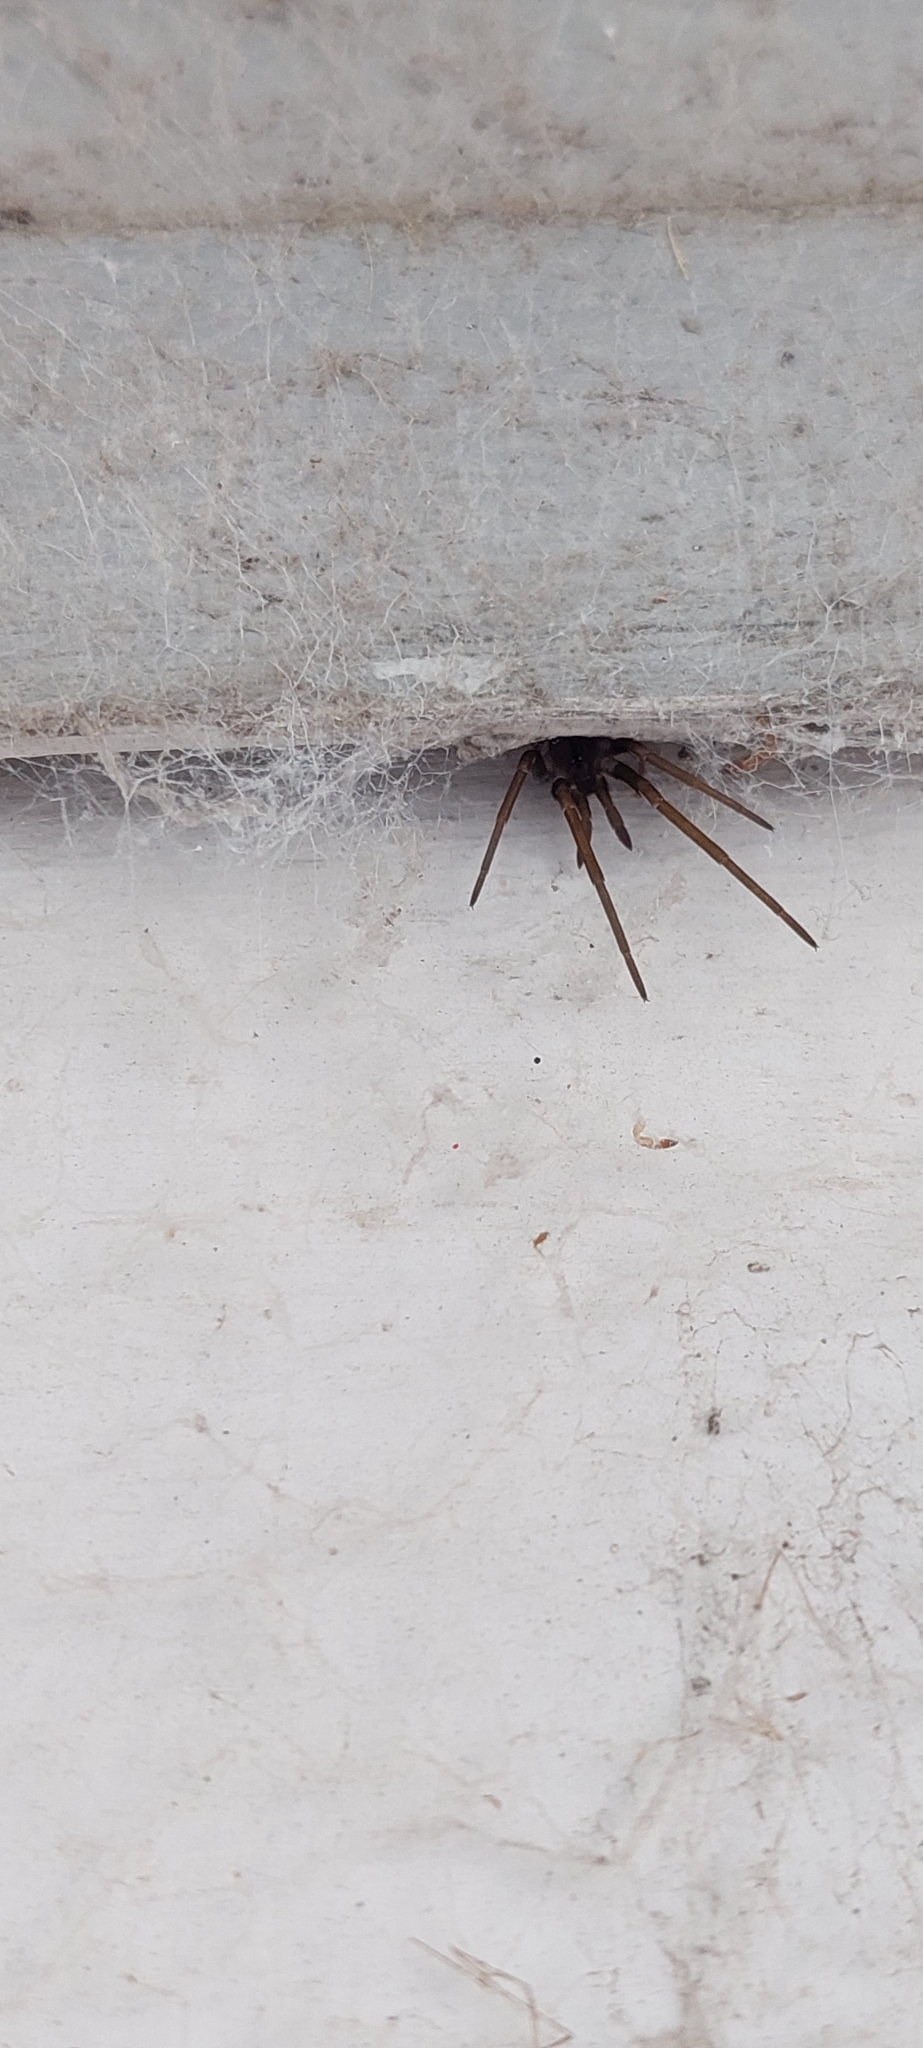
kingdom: Animalia
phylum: Arthropoda
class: Arachnida
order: Araneae
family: Filistatidae
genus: Kukulcania
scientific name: Kukulcania hibernalis
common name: Crevice weaver
